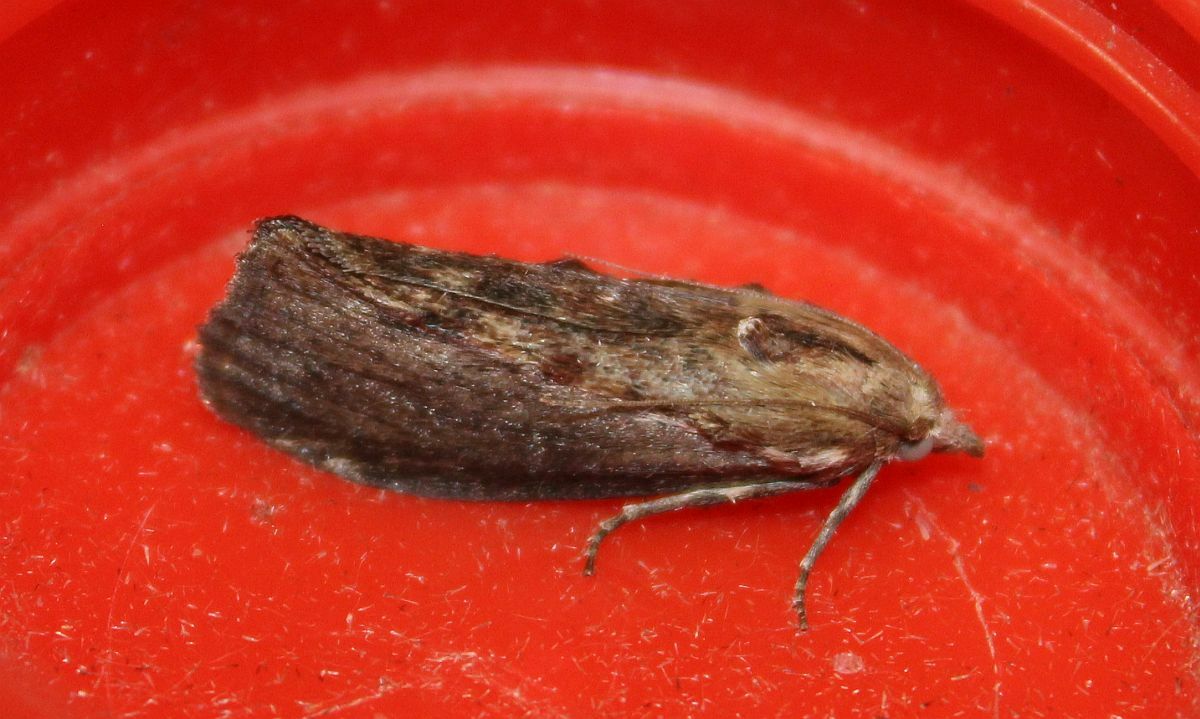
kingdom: Animalia
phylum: Arthropoda
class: Insecta
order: Lepidoptera
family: Pyralidae
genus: Galleria
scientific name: Galleria mellonella
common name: Greater wax moth
